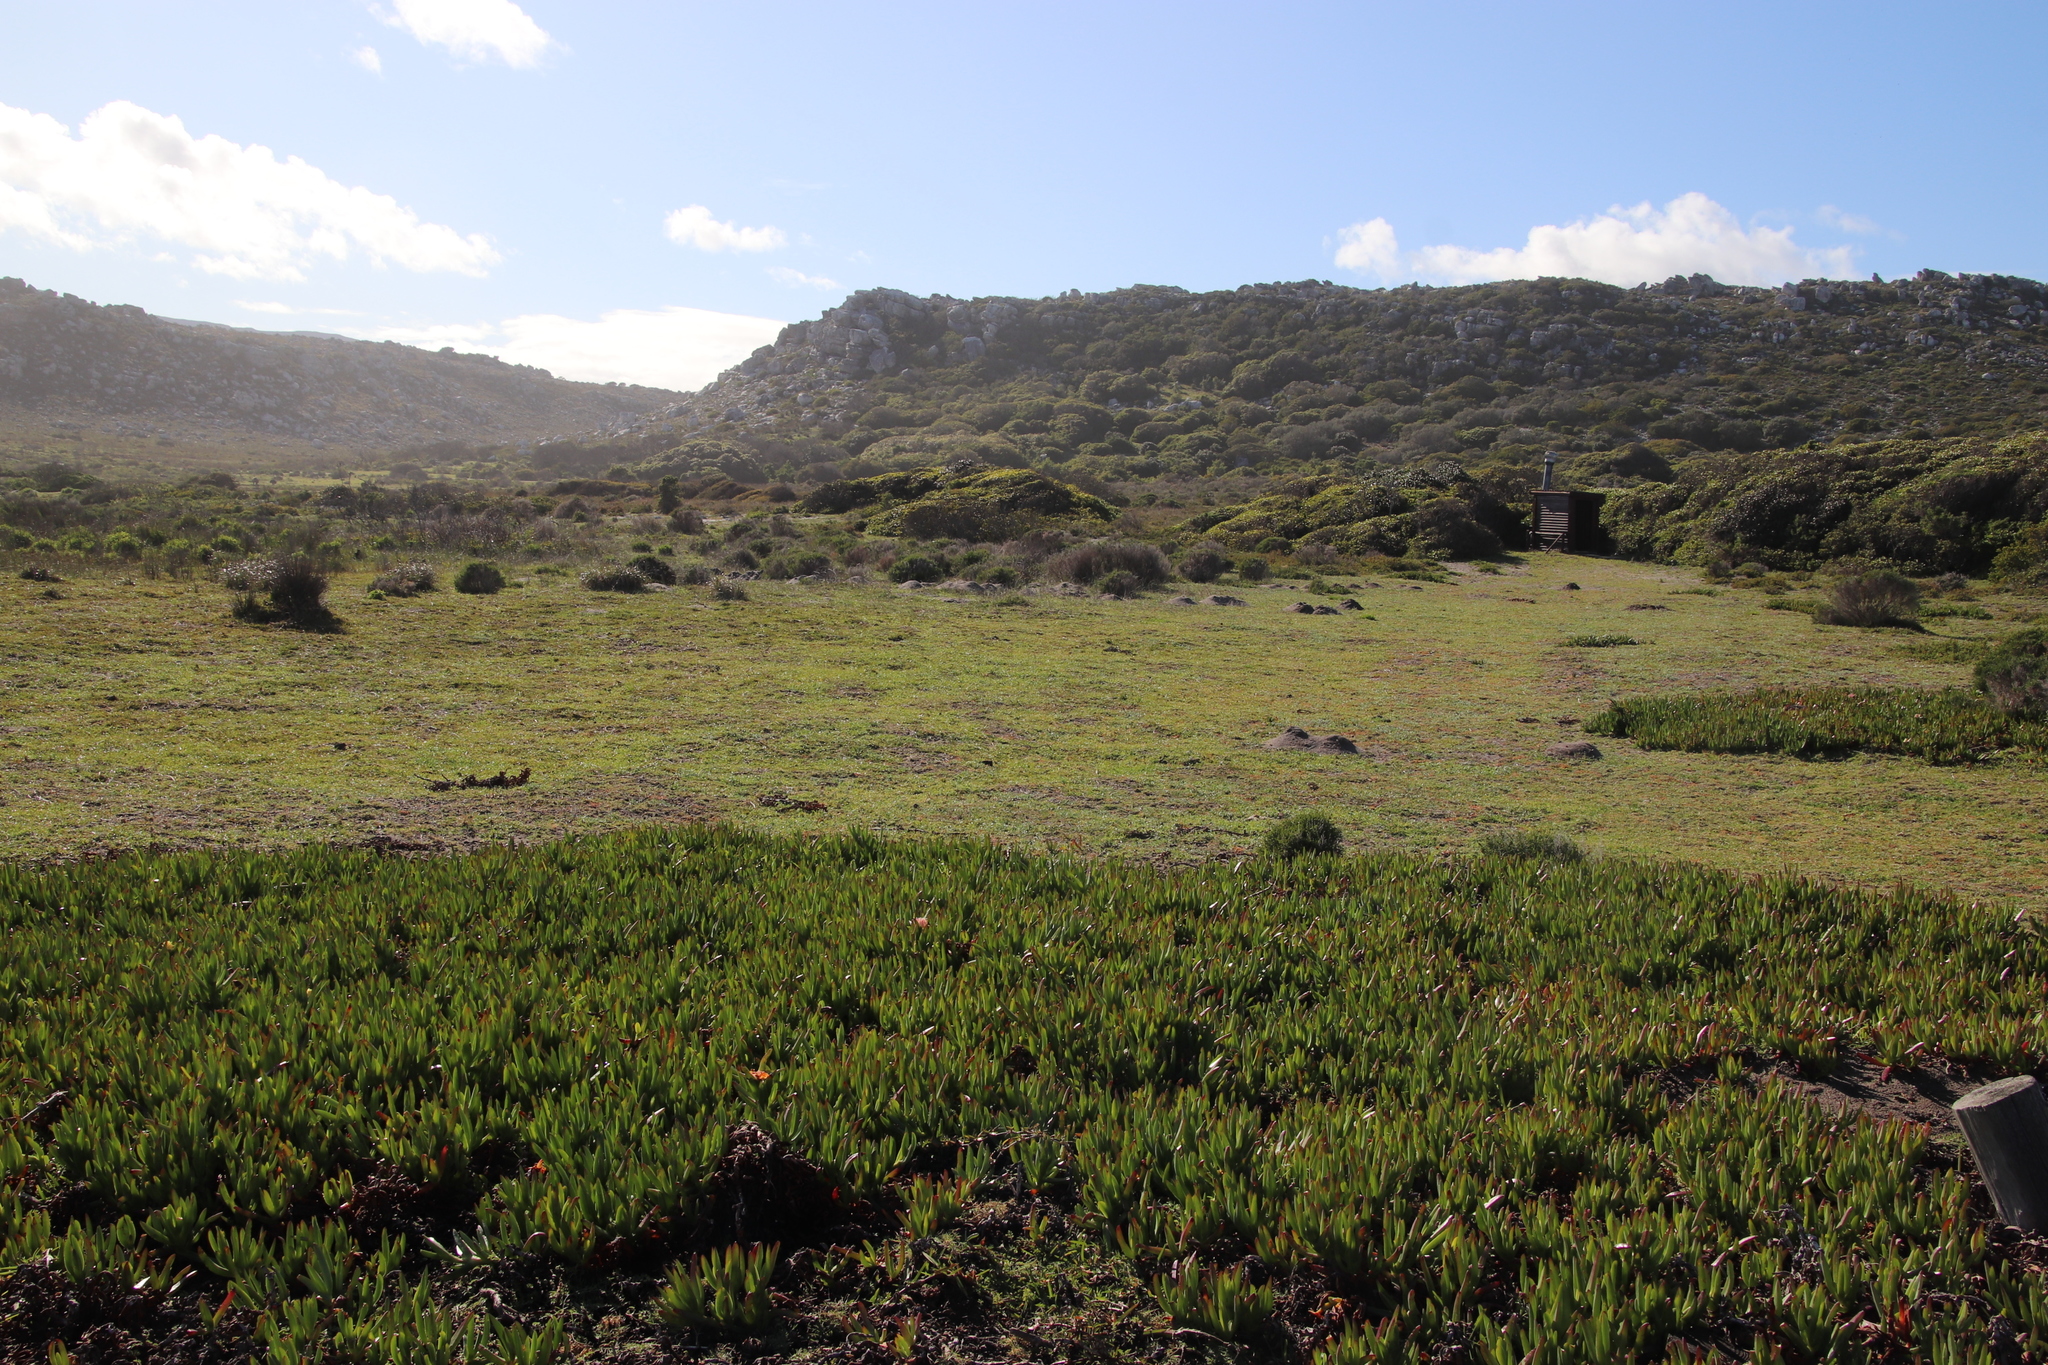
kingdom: Plantae
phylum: Tracheophyta
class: Magnoliopsida
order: Caryophyllales
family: Aizoaceae
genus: Carpobrotus
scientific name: Carpobrotus edulis
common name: Hottentot-fig
